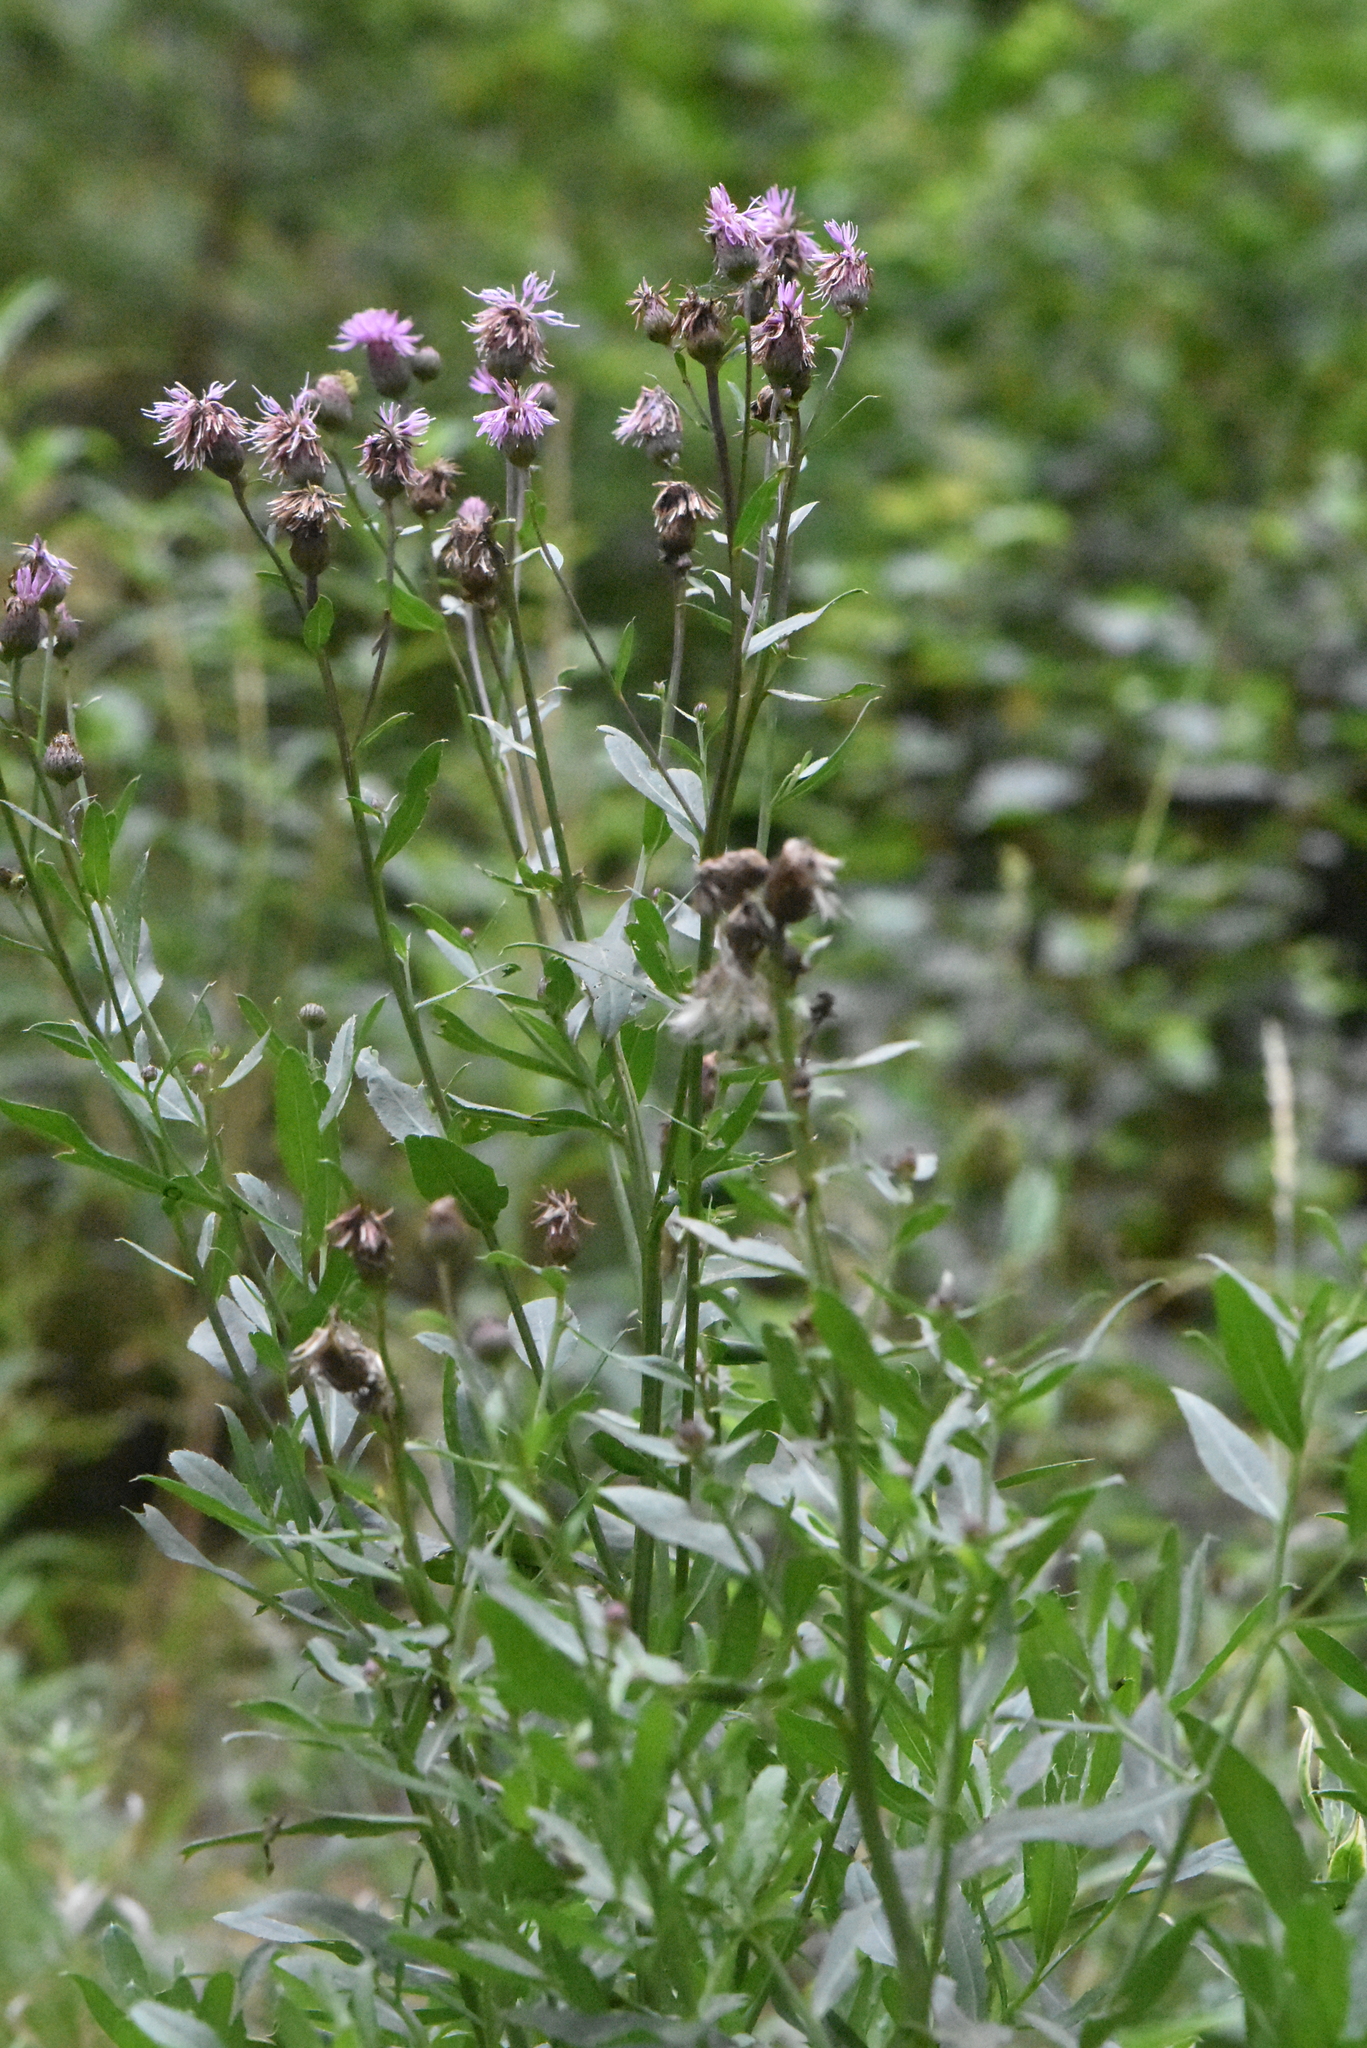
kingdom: Plantae
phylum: Tracheophyta
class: Magnoliopsida
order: Asterales
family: Asteraceae
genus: Cirsium
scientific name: Cirsium arvense
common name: Creeping thistle
